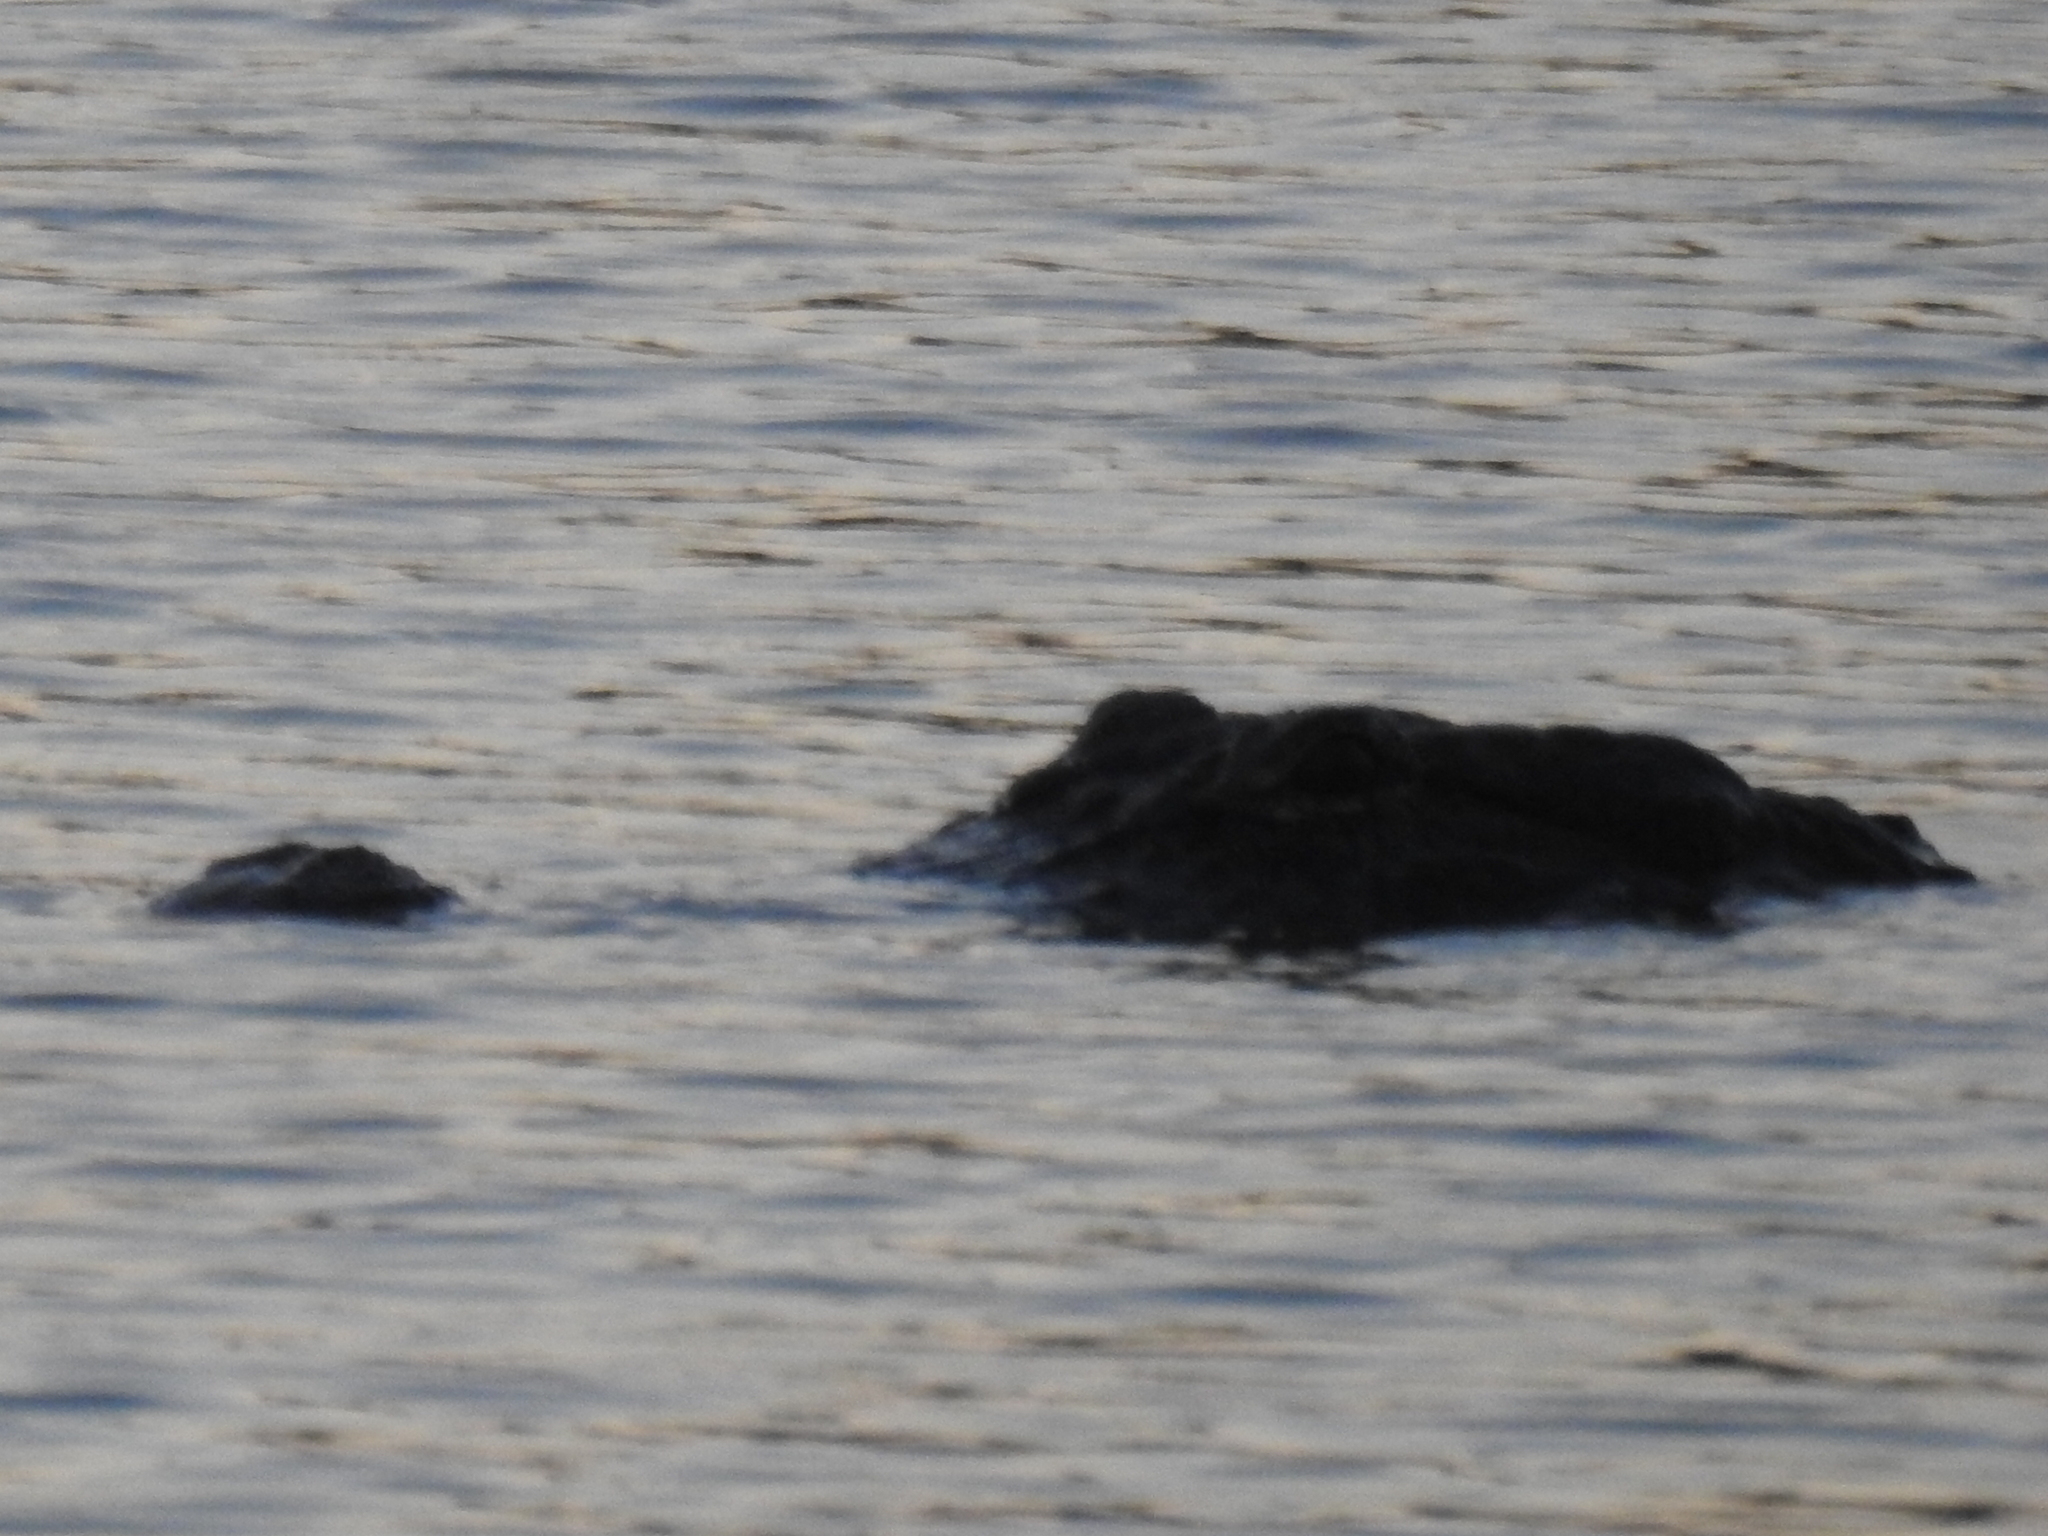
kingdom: Animalia
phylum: Chordata
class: Crocodylia
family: Alligatoridae
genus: Alligator
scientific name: Alligator mississippiensis
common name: American alligator
